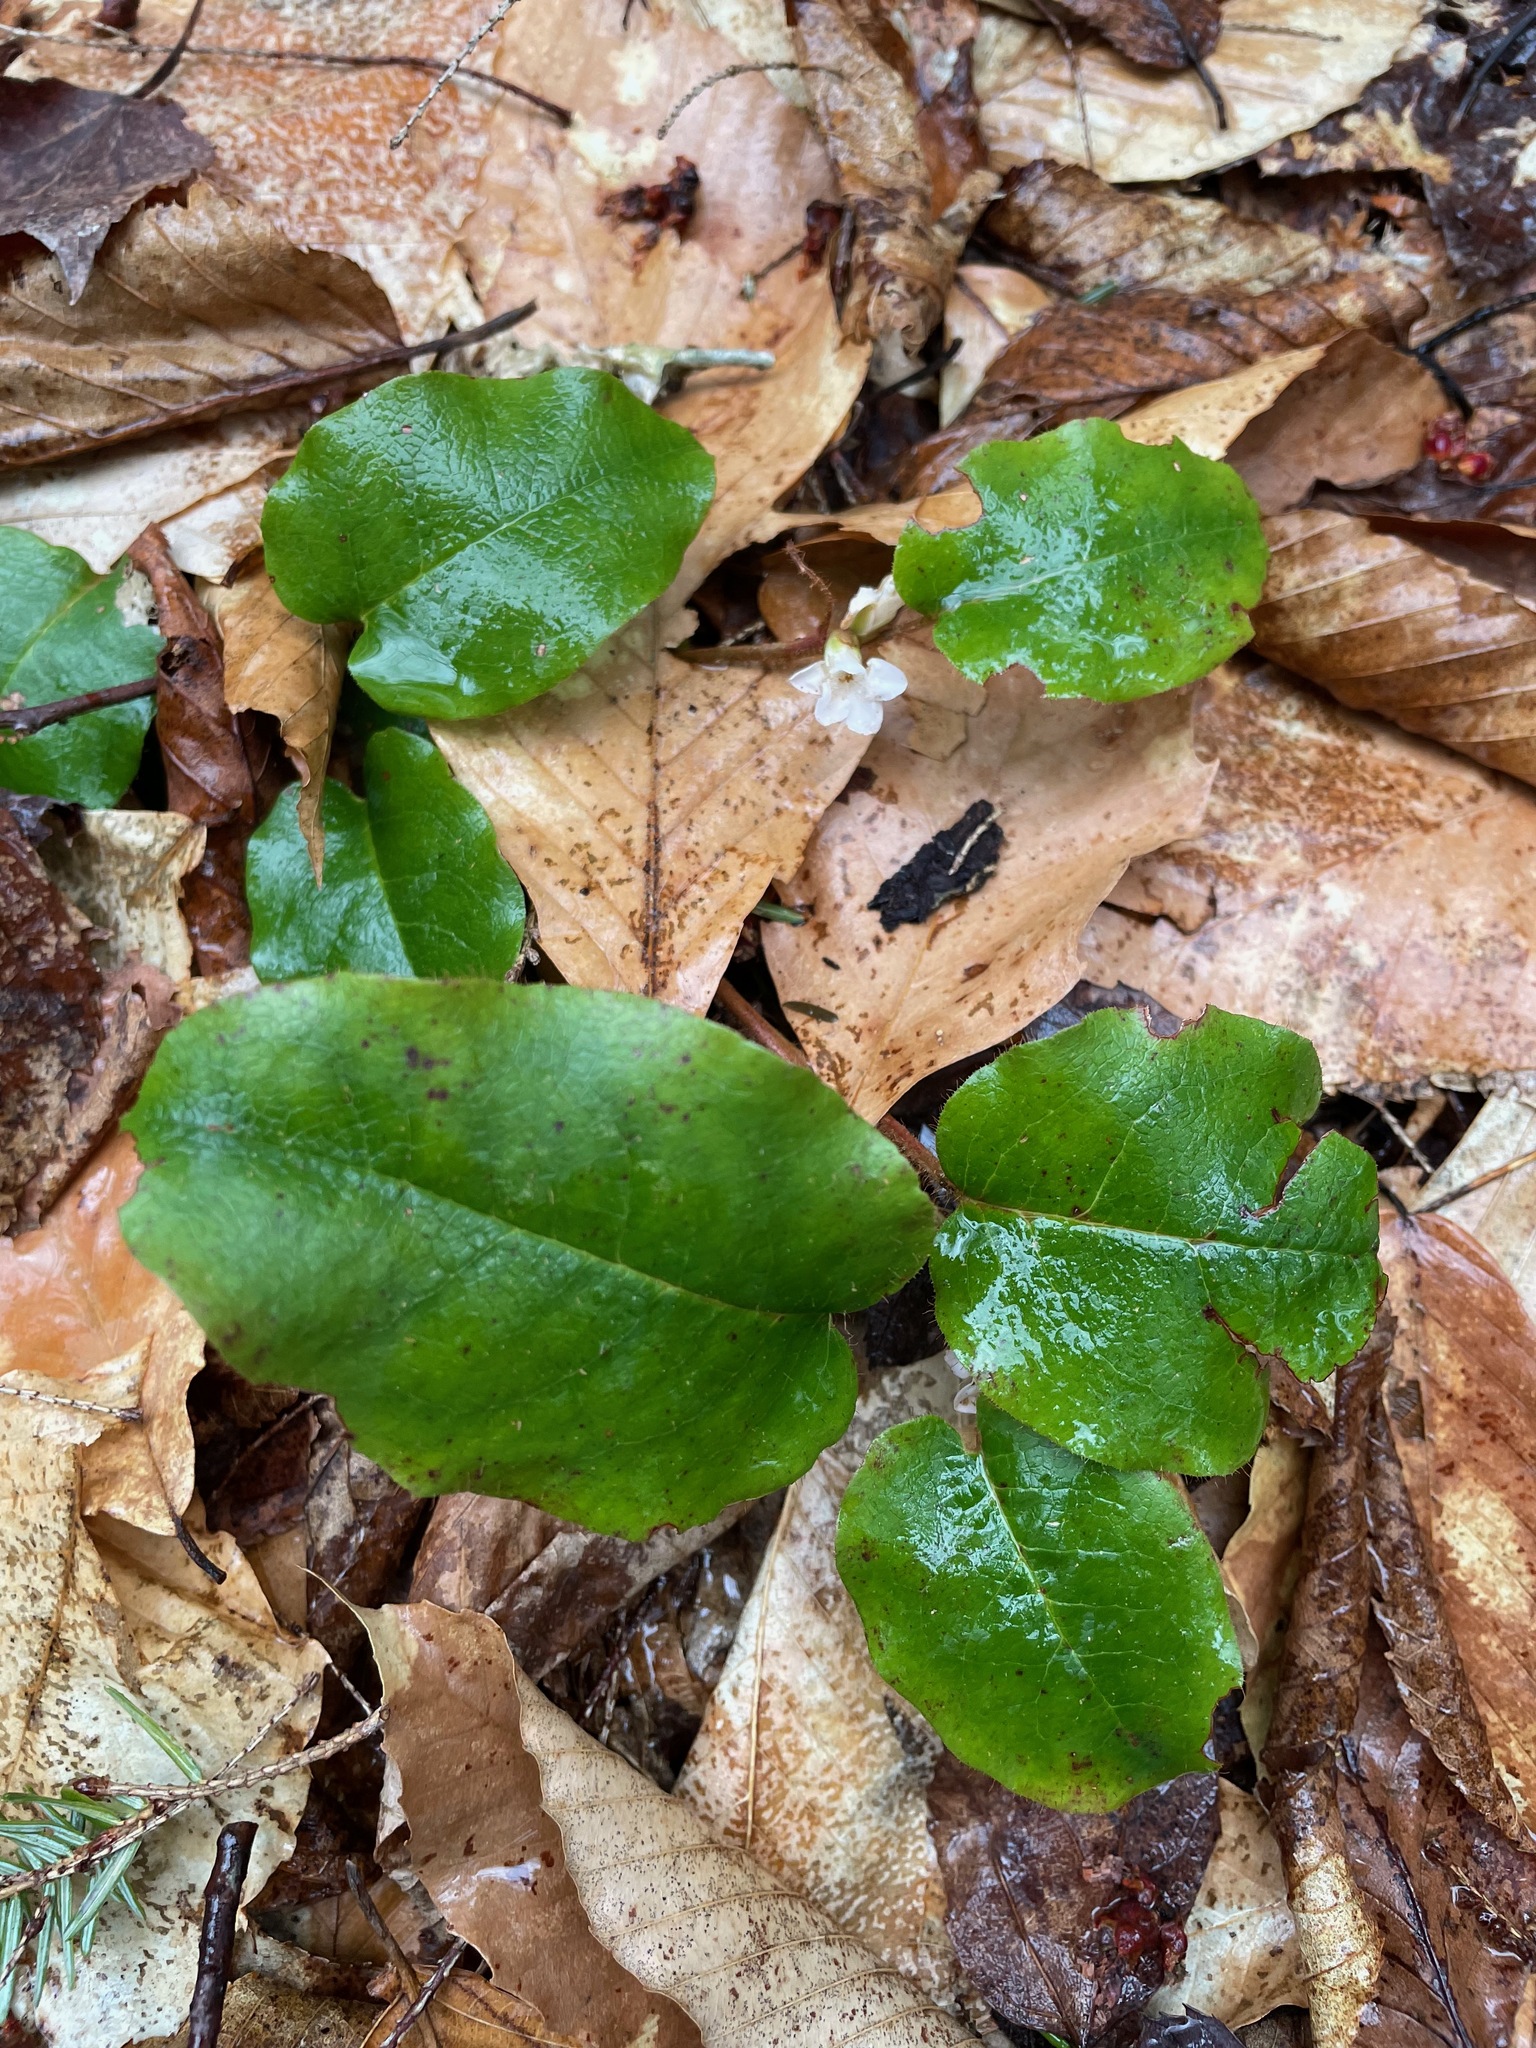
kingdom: Plantae
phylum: Tracheophyta
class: Magnoliopsida
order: Ericales
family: Ericaceae
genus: Epigaea
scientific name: Epigaea repens
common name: Gravelroot
